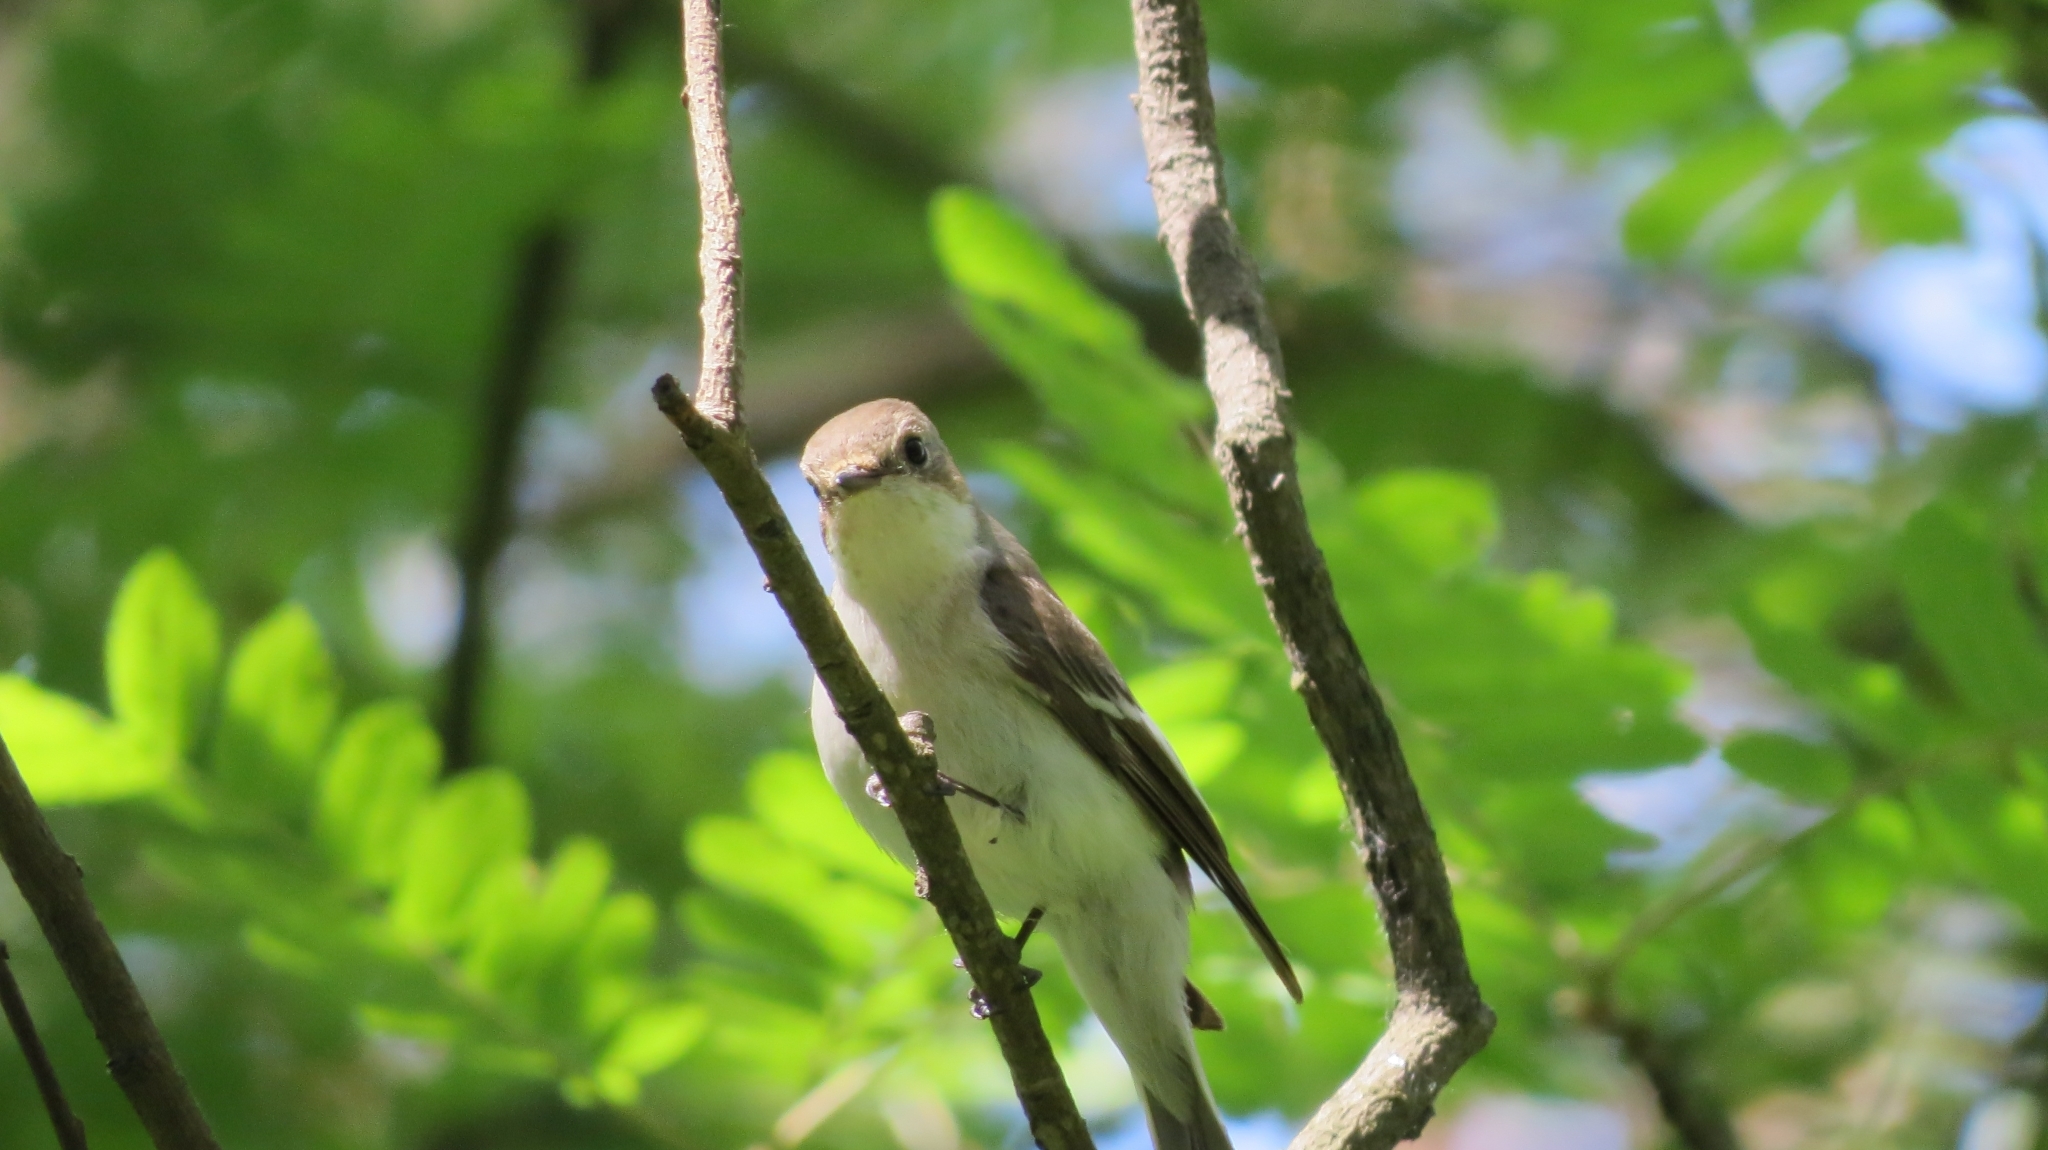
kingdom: Animalia
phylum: Chordata
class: Aves
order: Passeriformes
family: Muscicapidae
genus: Ficedula
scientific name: Ficedula hypoleuca
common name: European pied flycatcher
